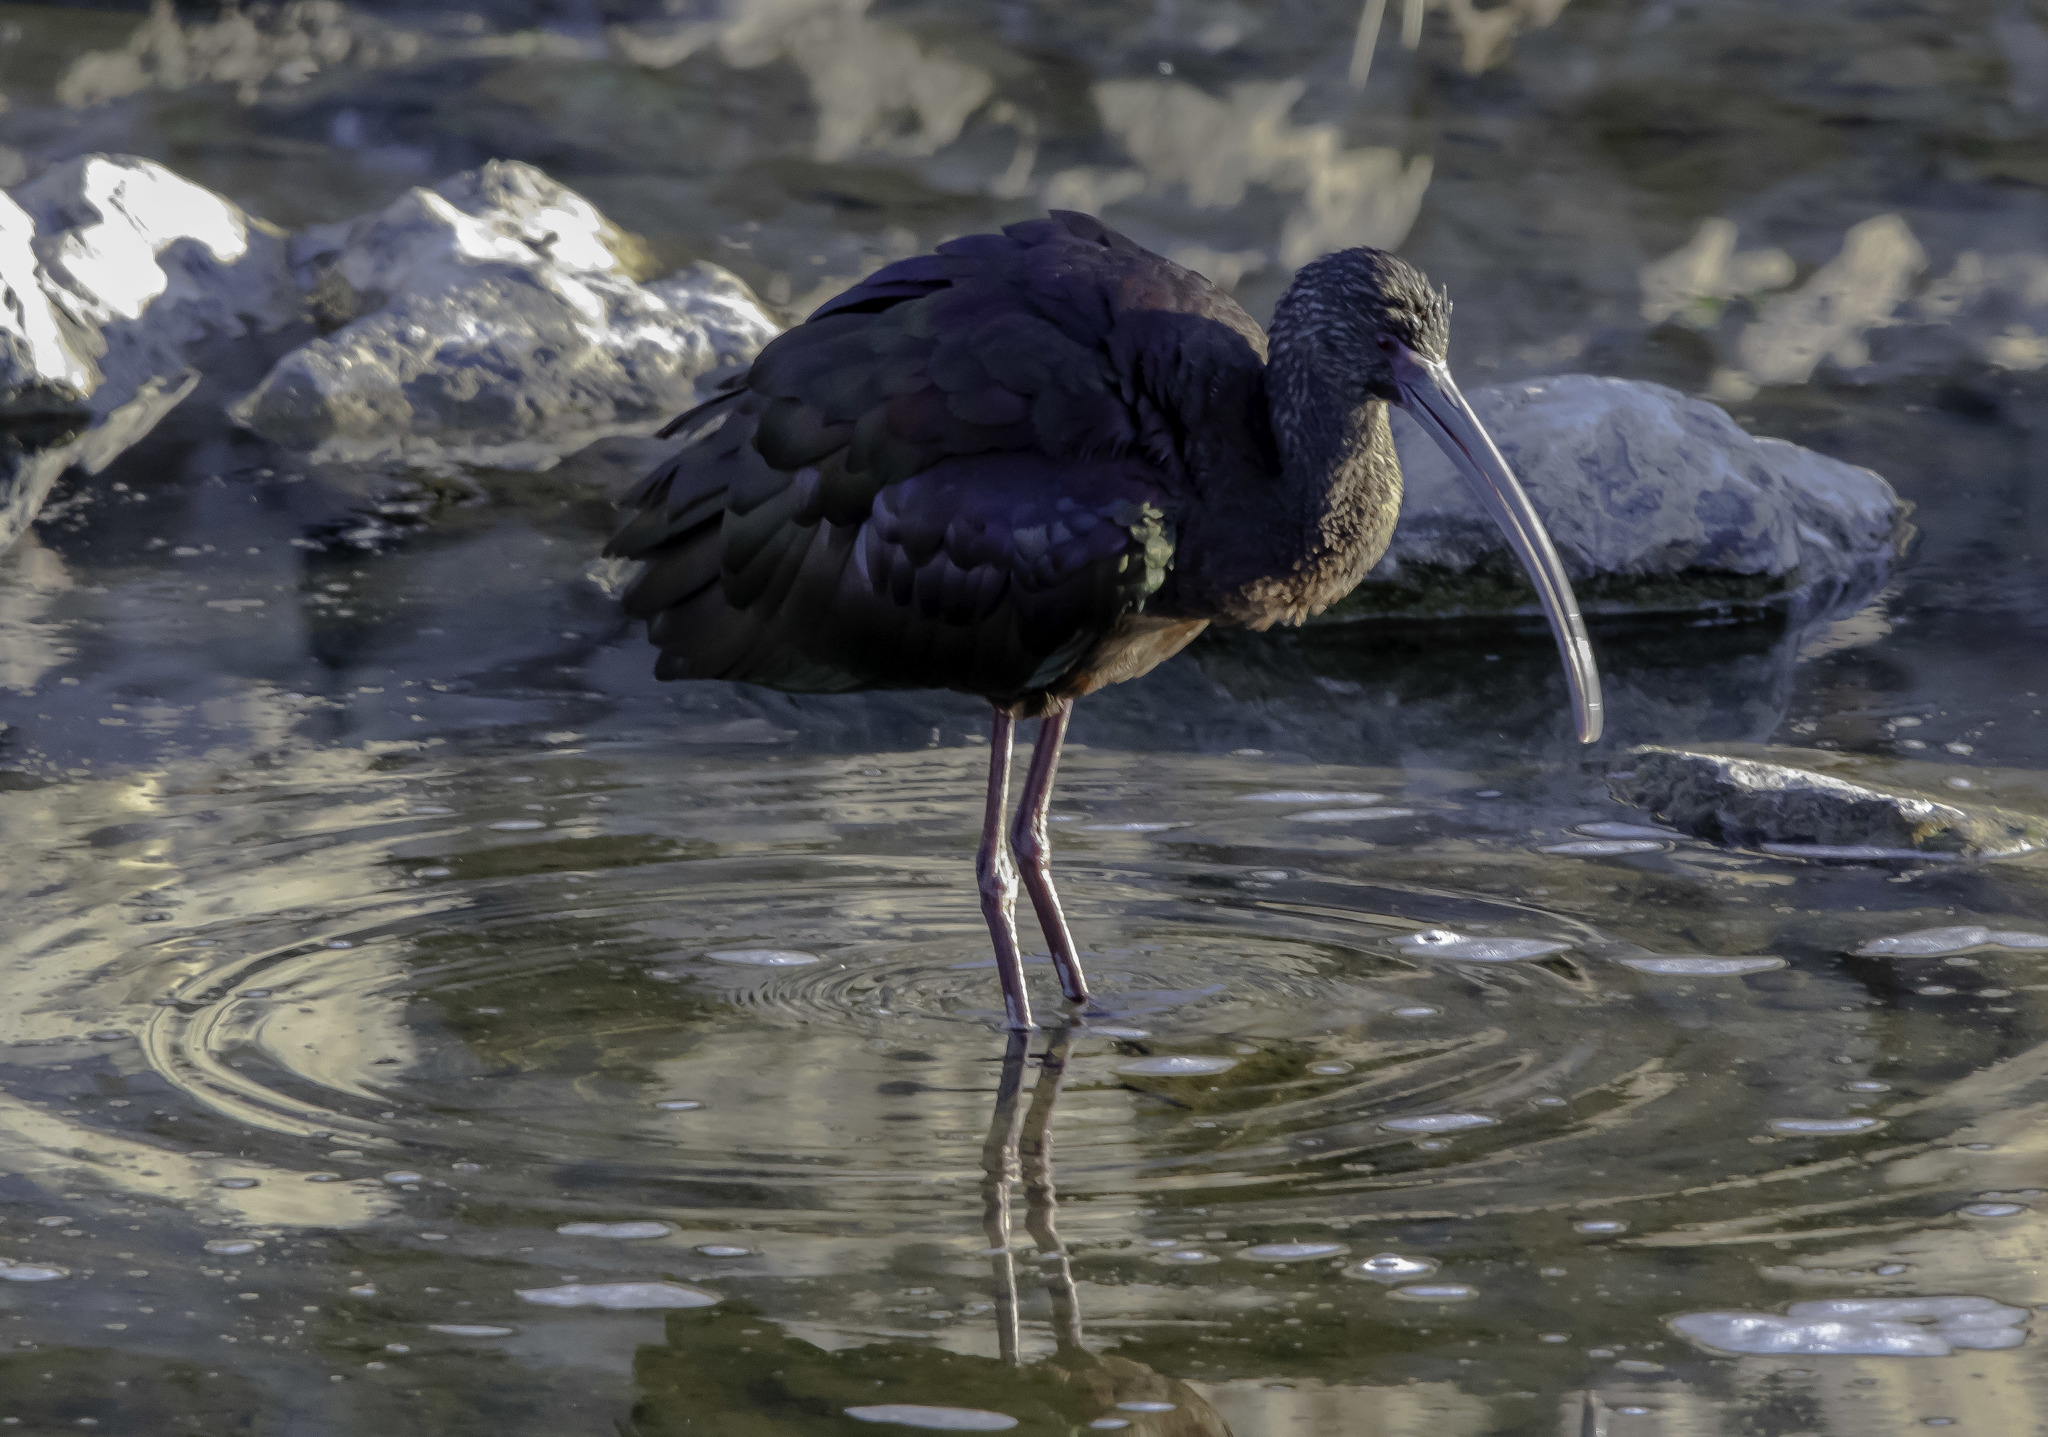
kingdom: Animalia
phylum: Chordata
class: Aves
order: Pelecaniformes
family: Threskiornithidae
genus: Plegadis
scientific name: Plegadis chihi
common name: White-faced ibis
